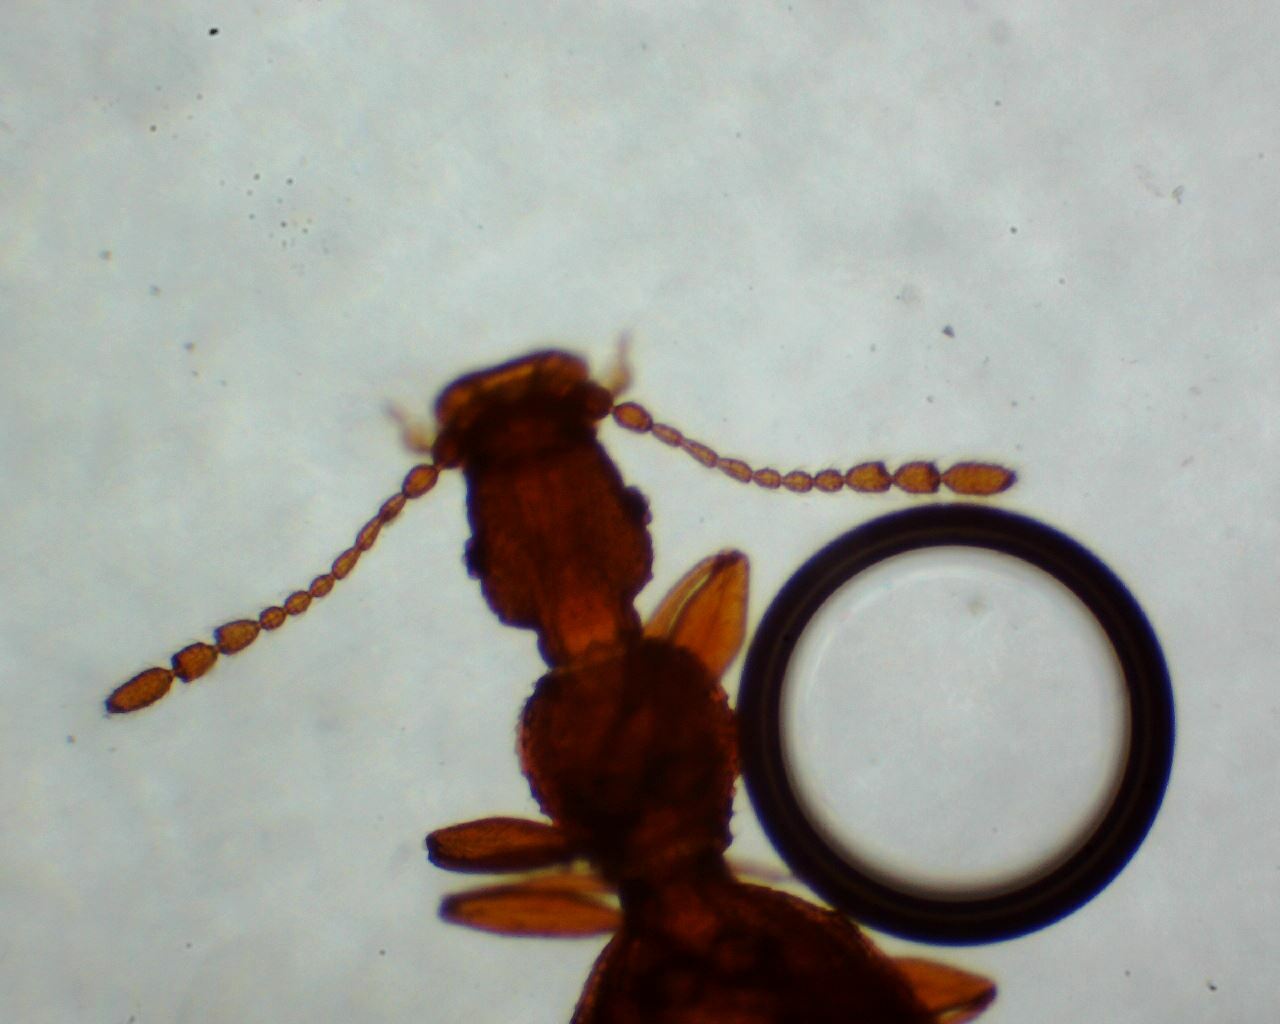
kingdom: Animalia
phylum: Arthropoda
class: Insecta
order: Coleoptera
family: Latridiidae
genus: Adistemia
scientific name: Adistemia watsoni
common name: Household minute scavenger beetle
